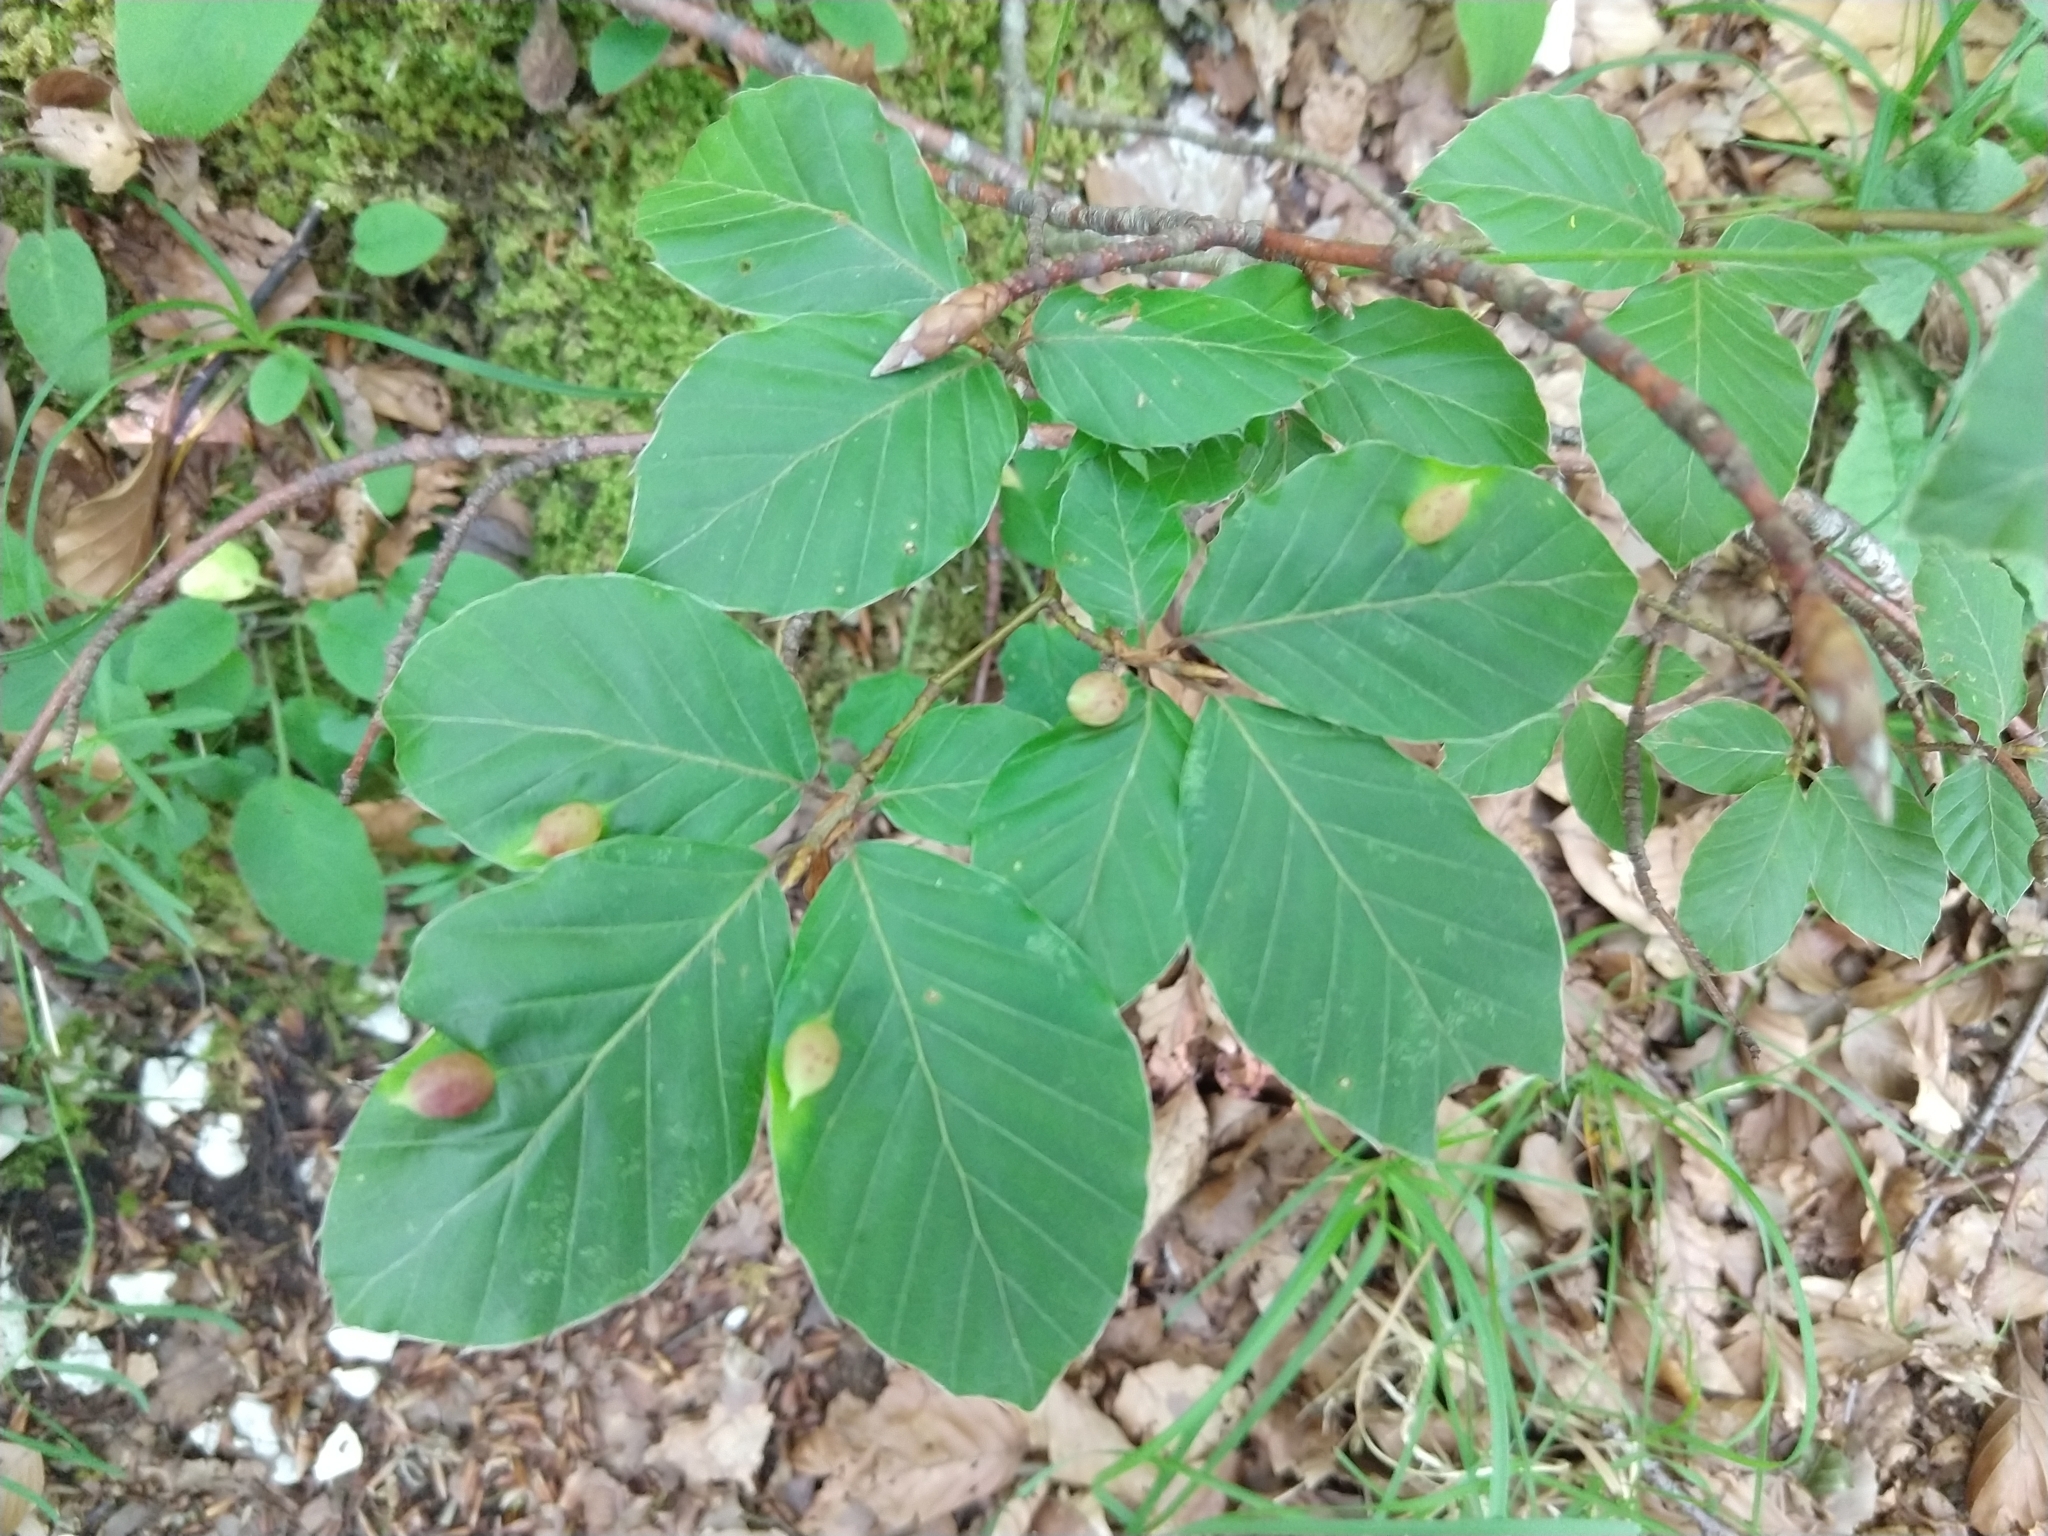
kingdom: Animalia
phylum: Arthropoda
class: Insecta
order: Diptera
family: Cecidomyiidae
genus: Mikiola
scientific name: Mikiola fagi
